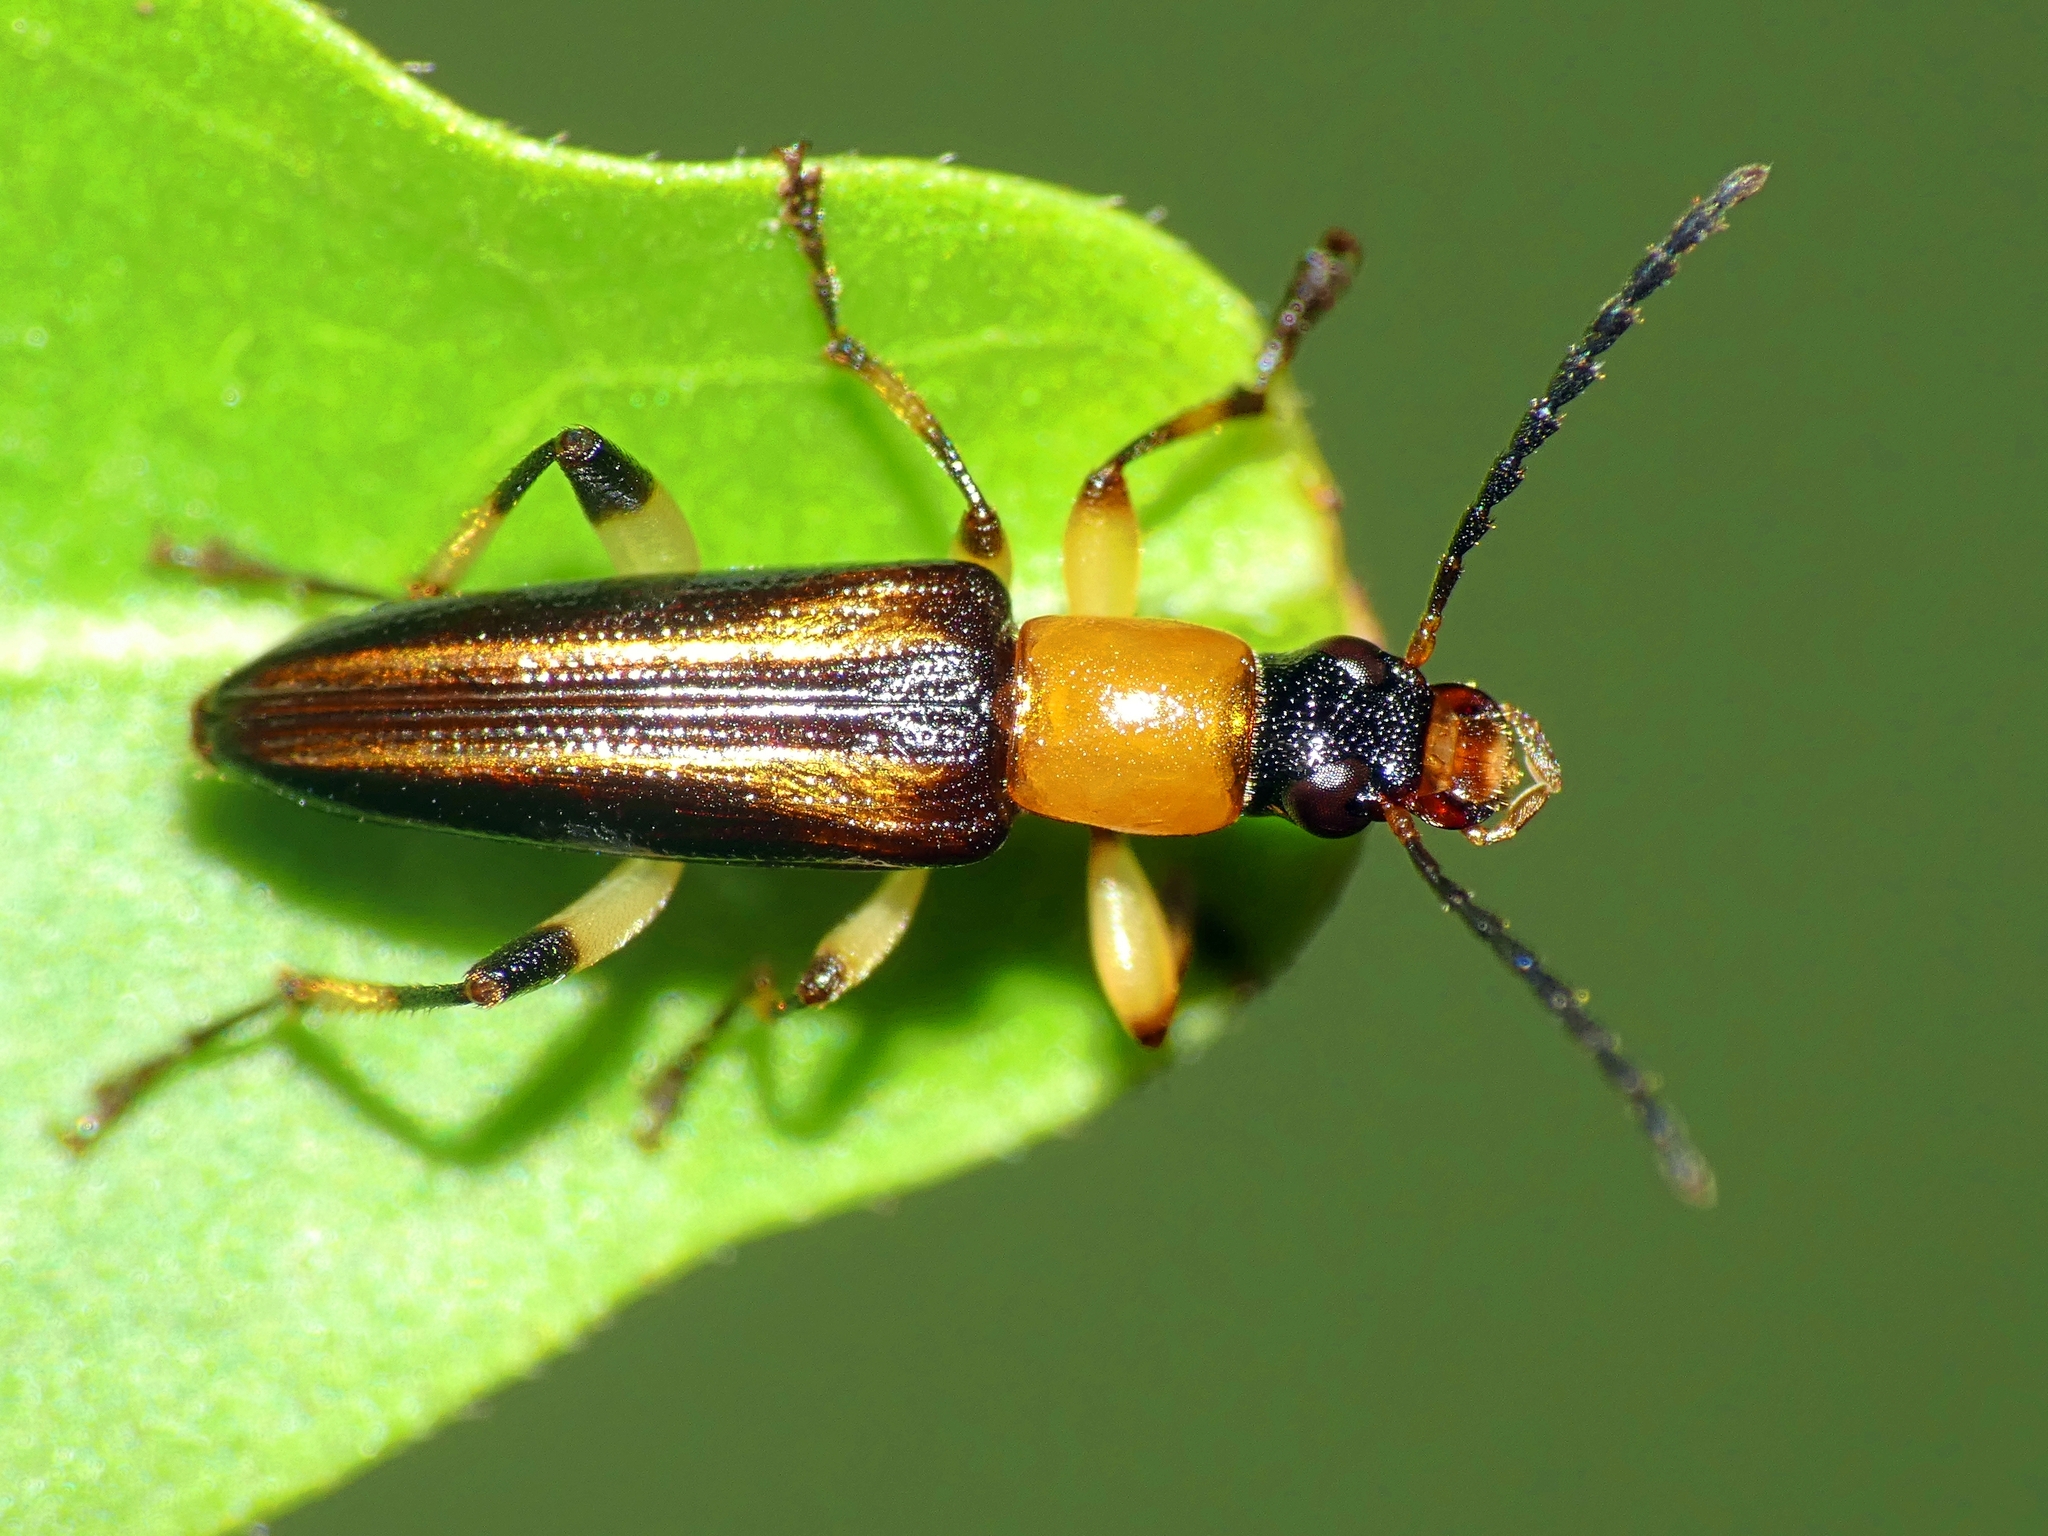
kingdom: Animalia
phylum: Arthropoda
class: Insecta
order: Coleoptera
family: Tenebrionidae
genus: Lepturidea
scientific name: Lepturidea
